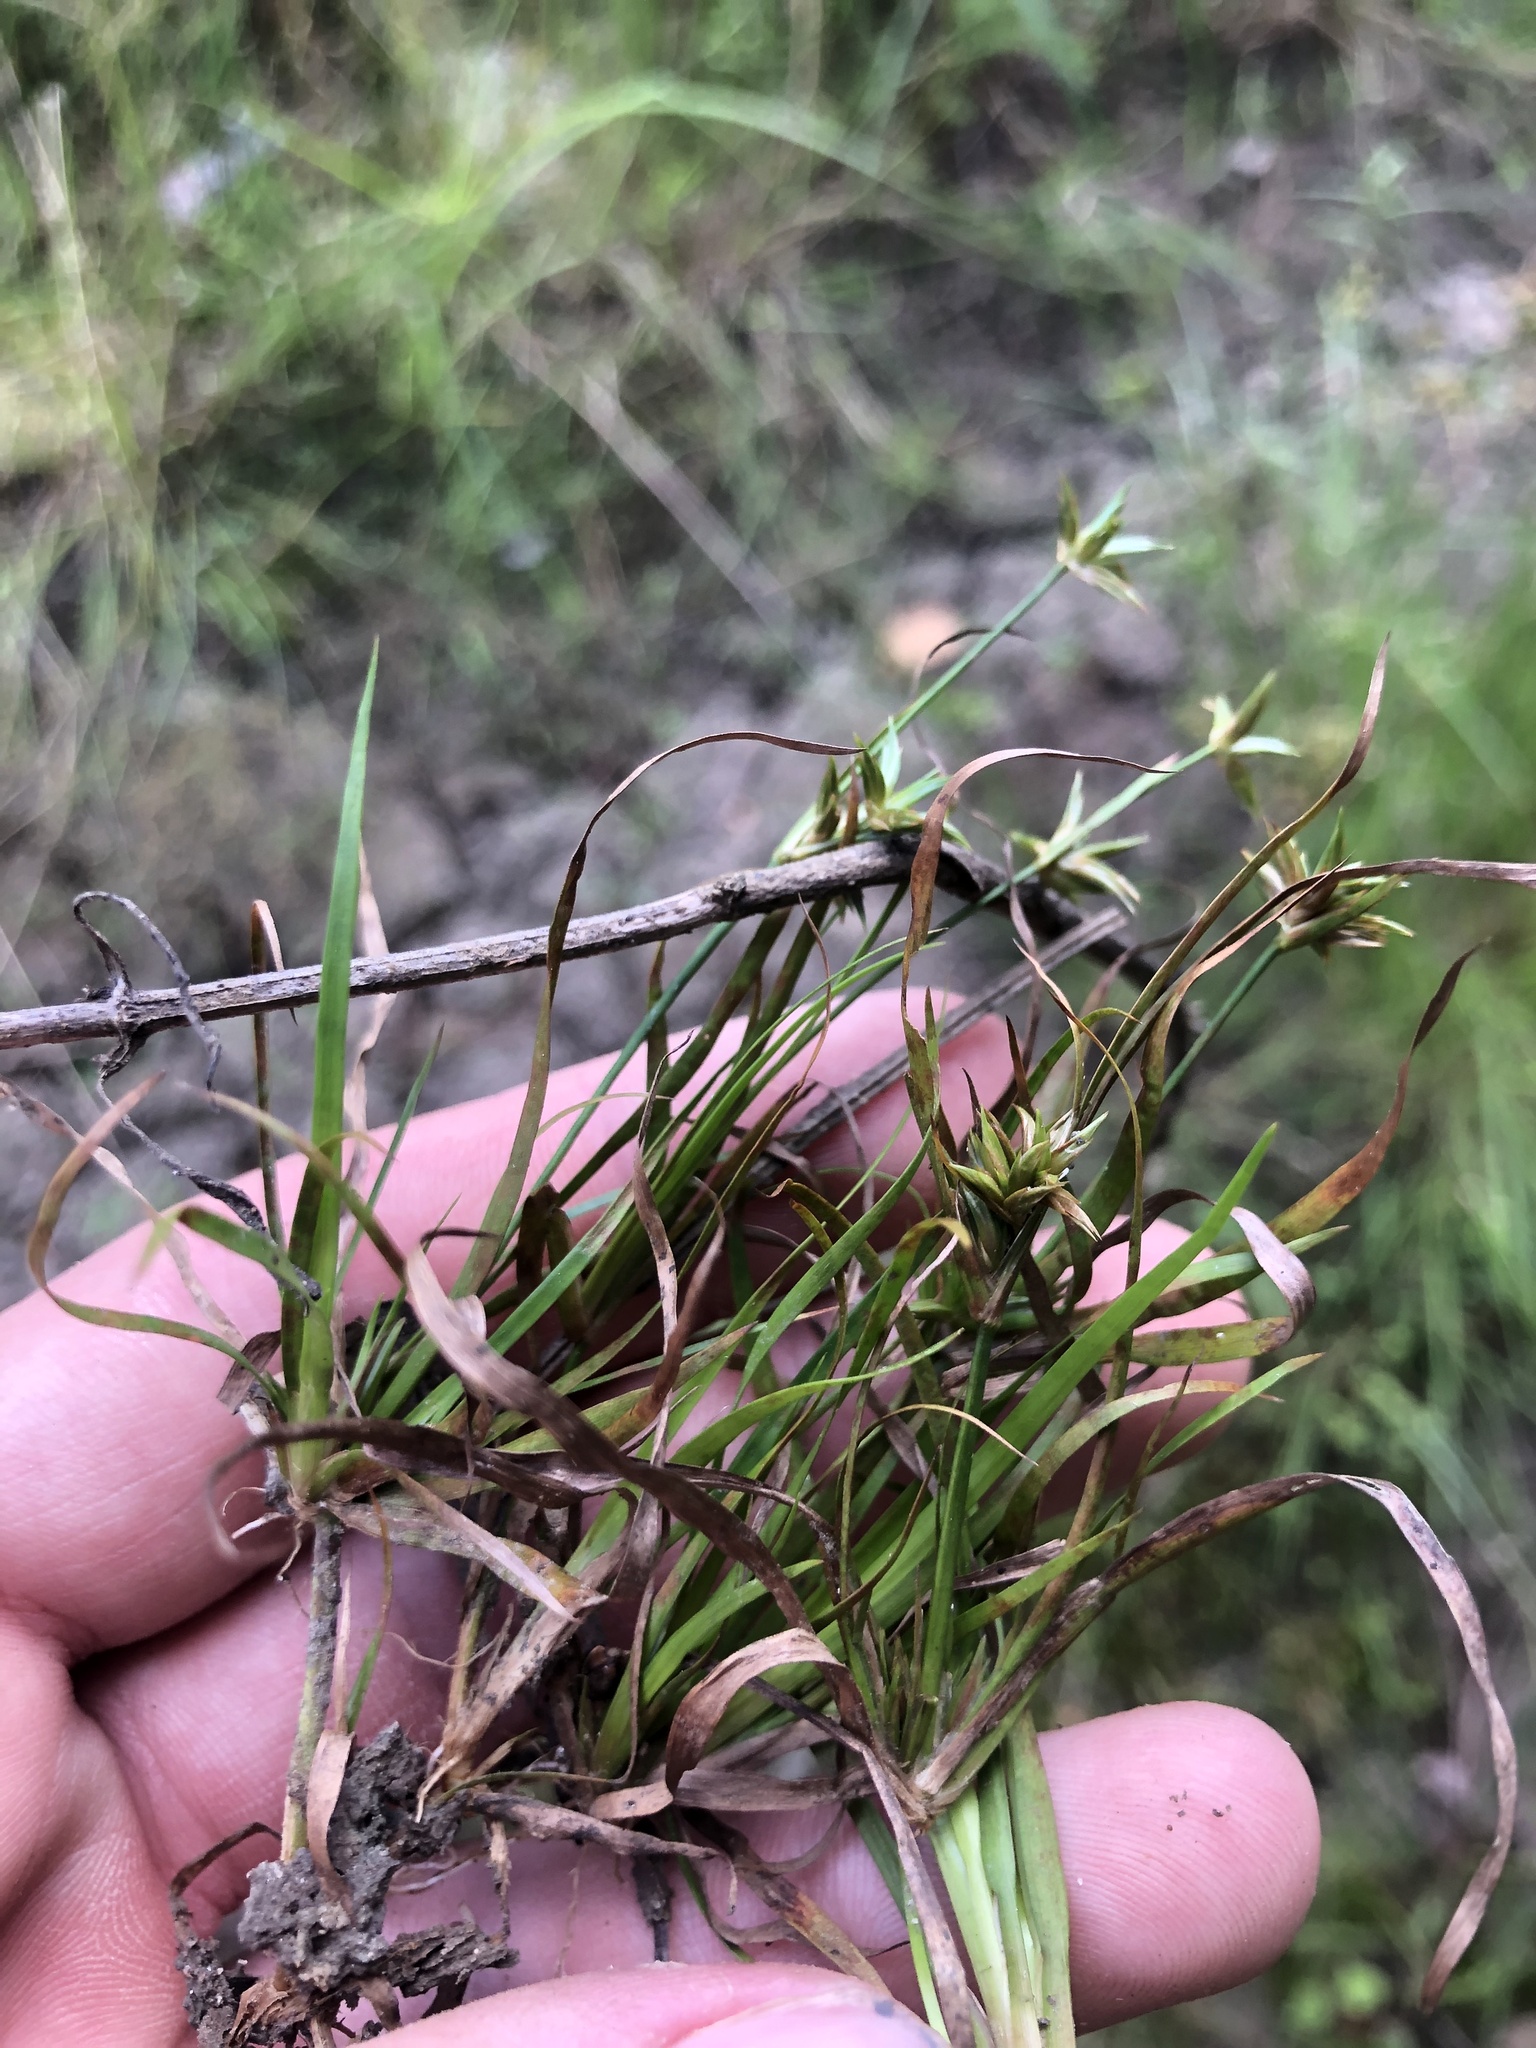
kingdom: Plantae
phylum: Tracheophyta
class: Liliopsida
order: Poales
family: Juncaceae
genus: Juncus
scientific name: Juncus repens
